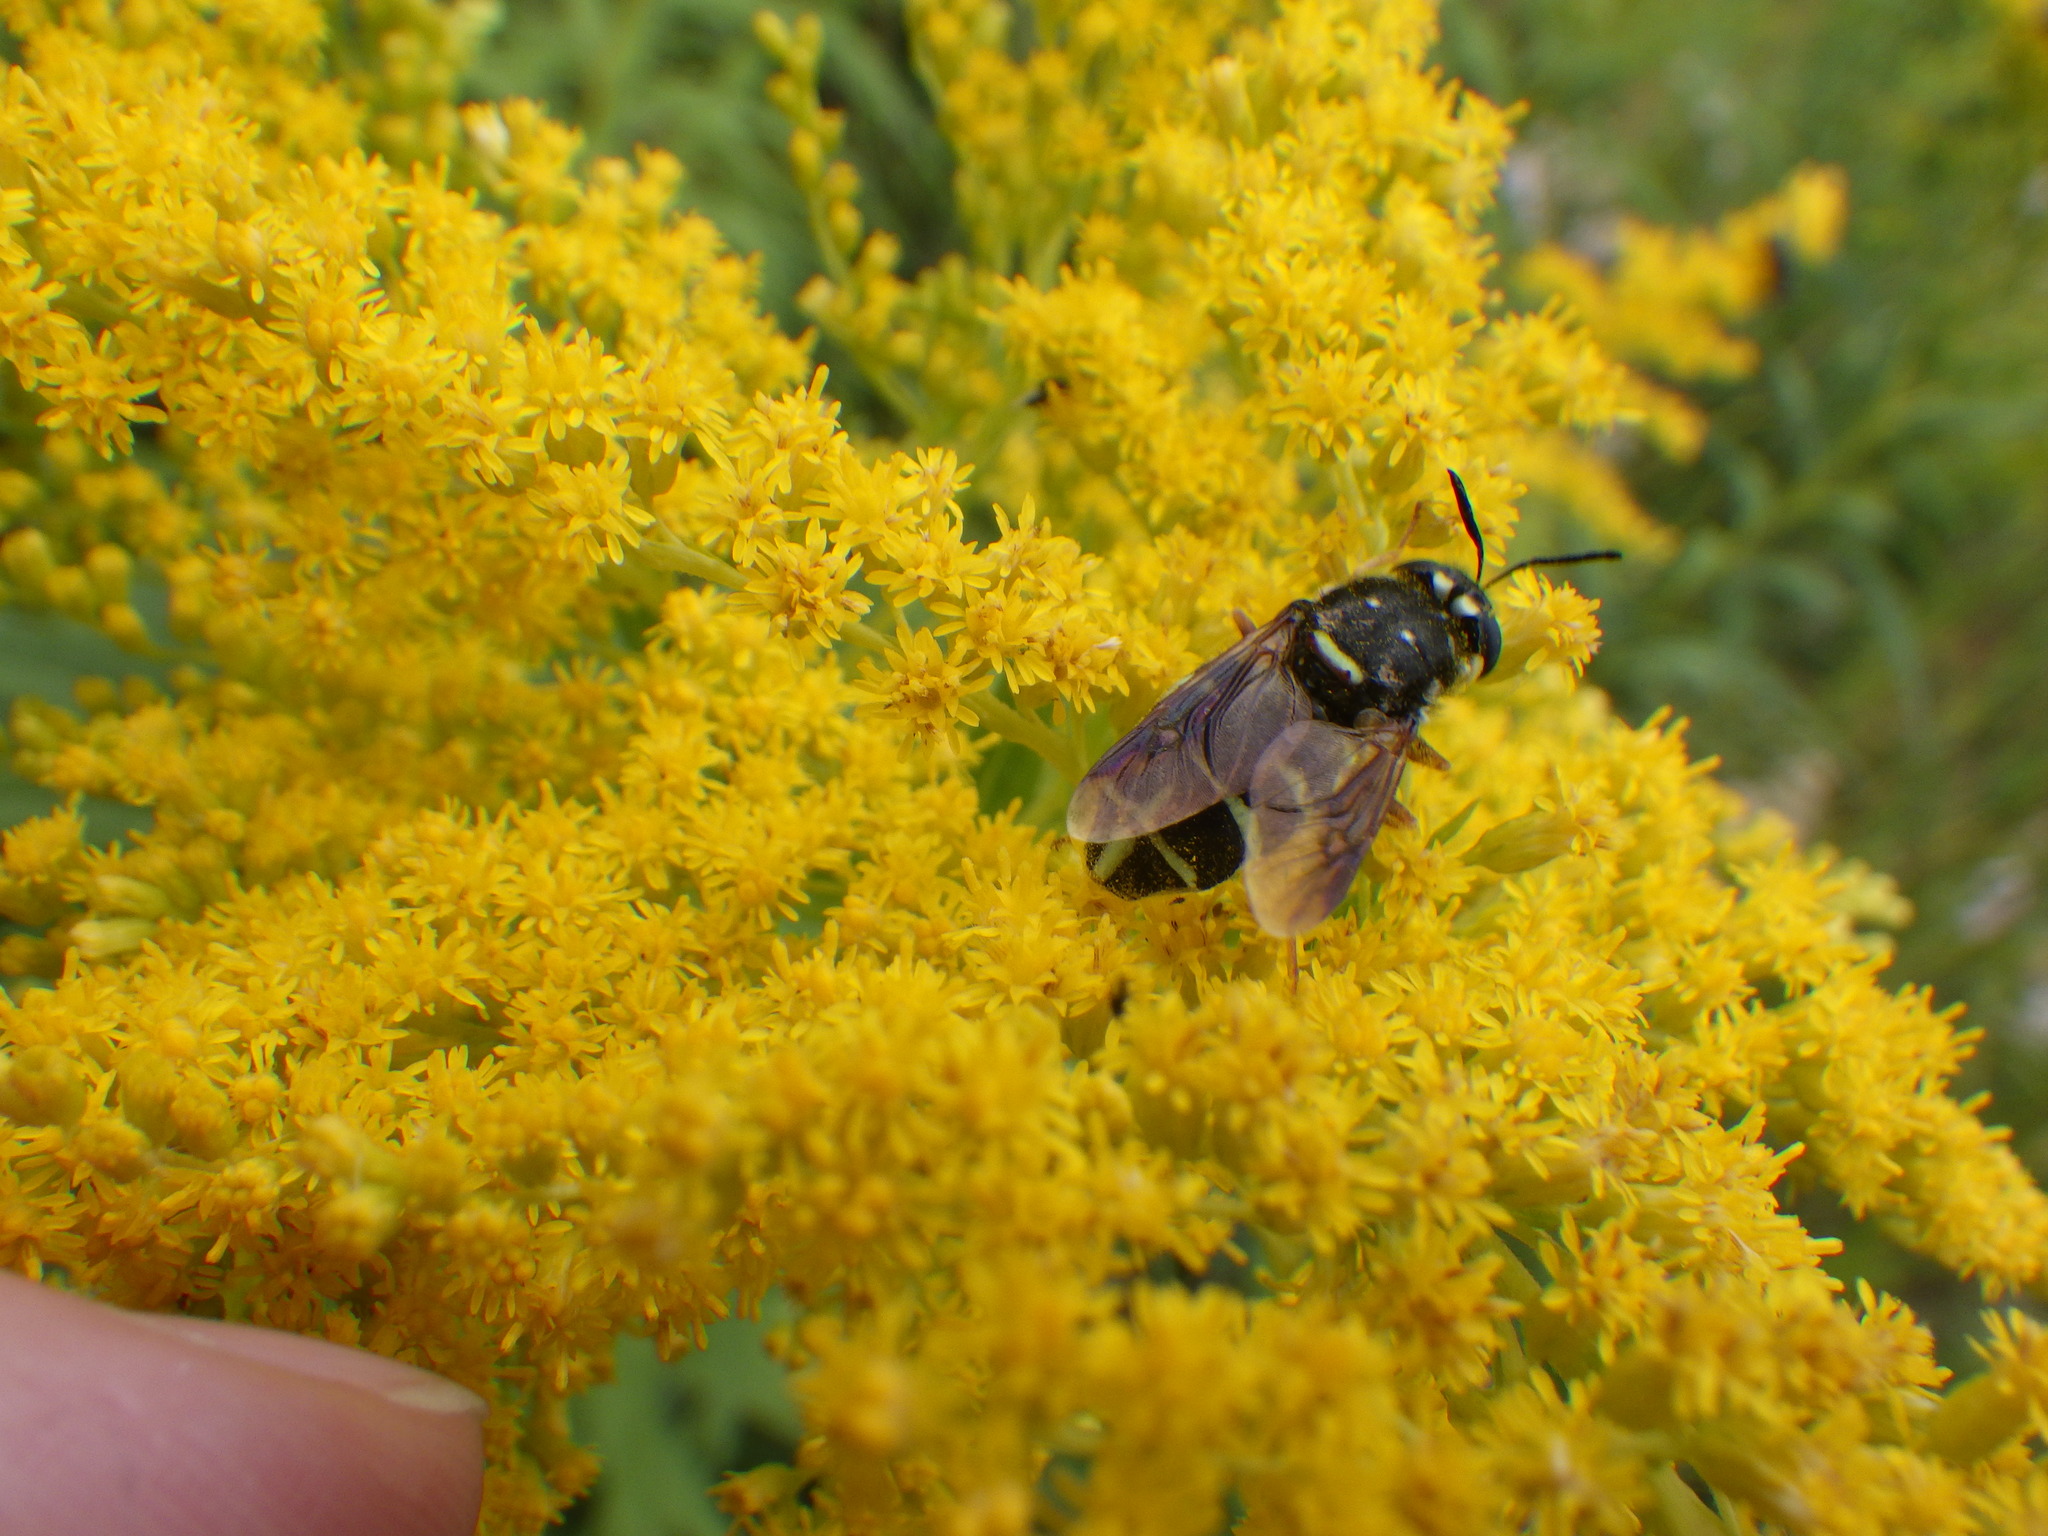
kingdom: Animalia
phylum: Arthropoda
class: Insecta
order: Diptera
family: Stratiomyidae
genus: Stratiomys
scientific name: Stratiomys badia
